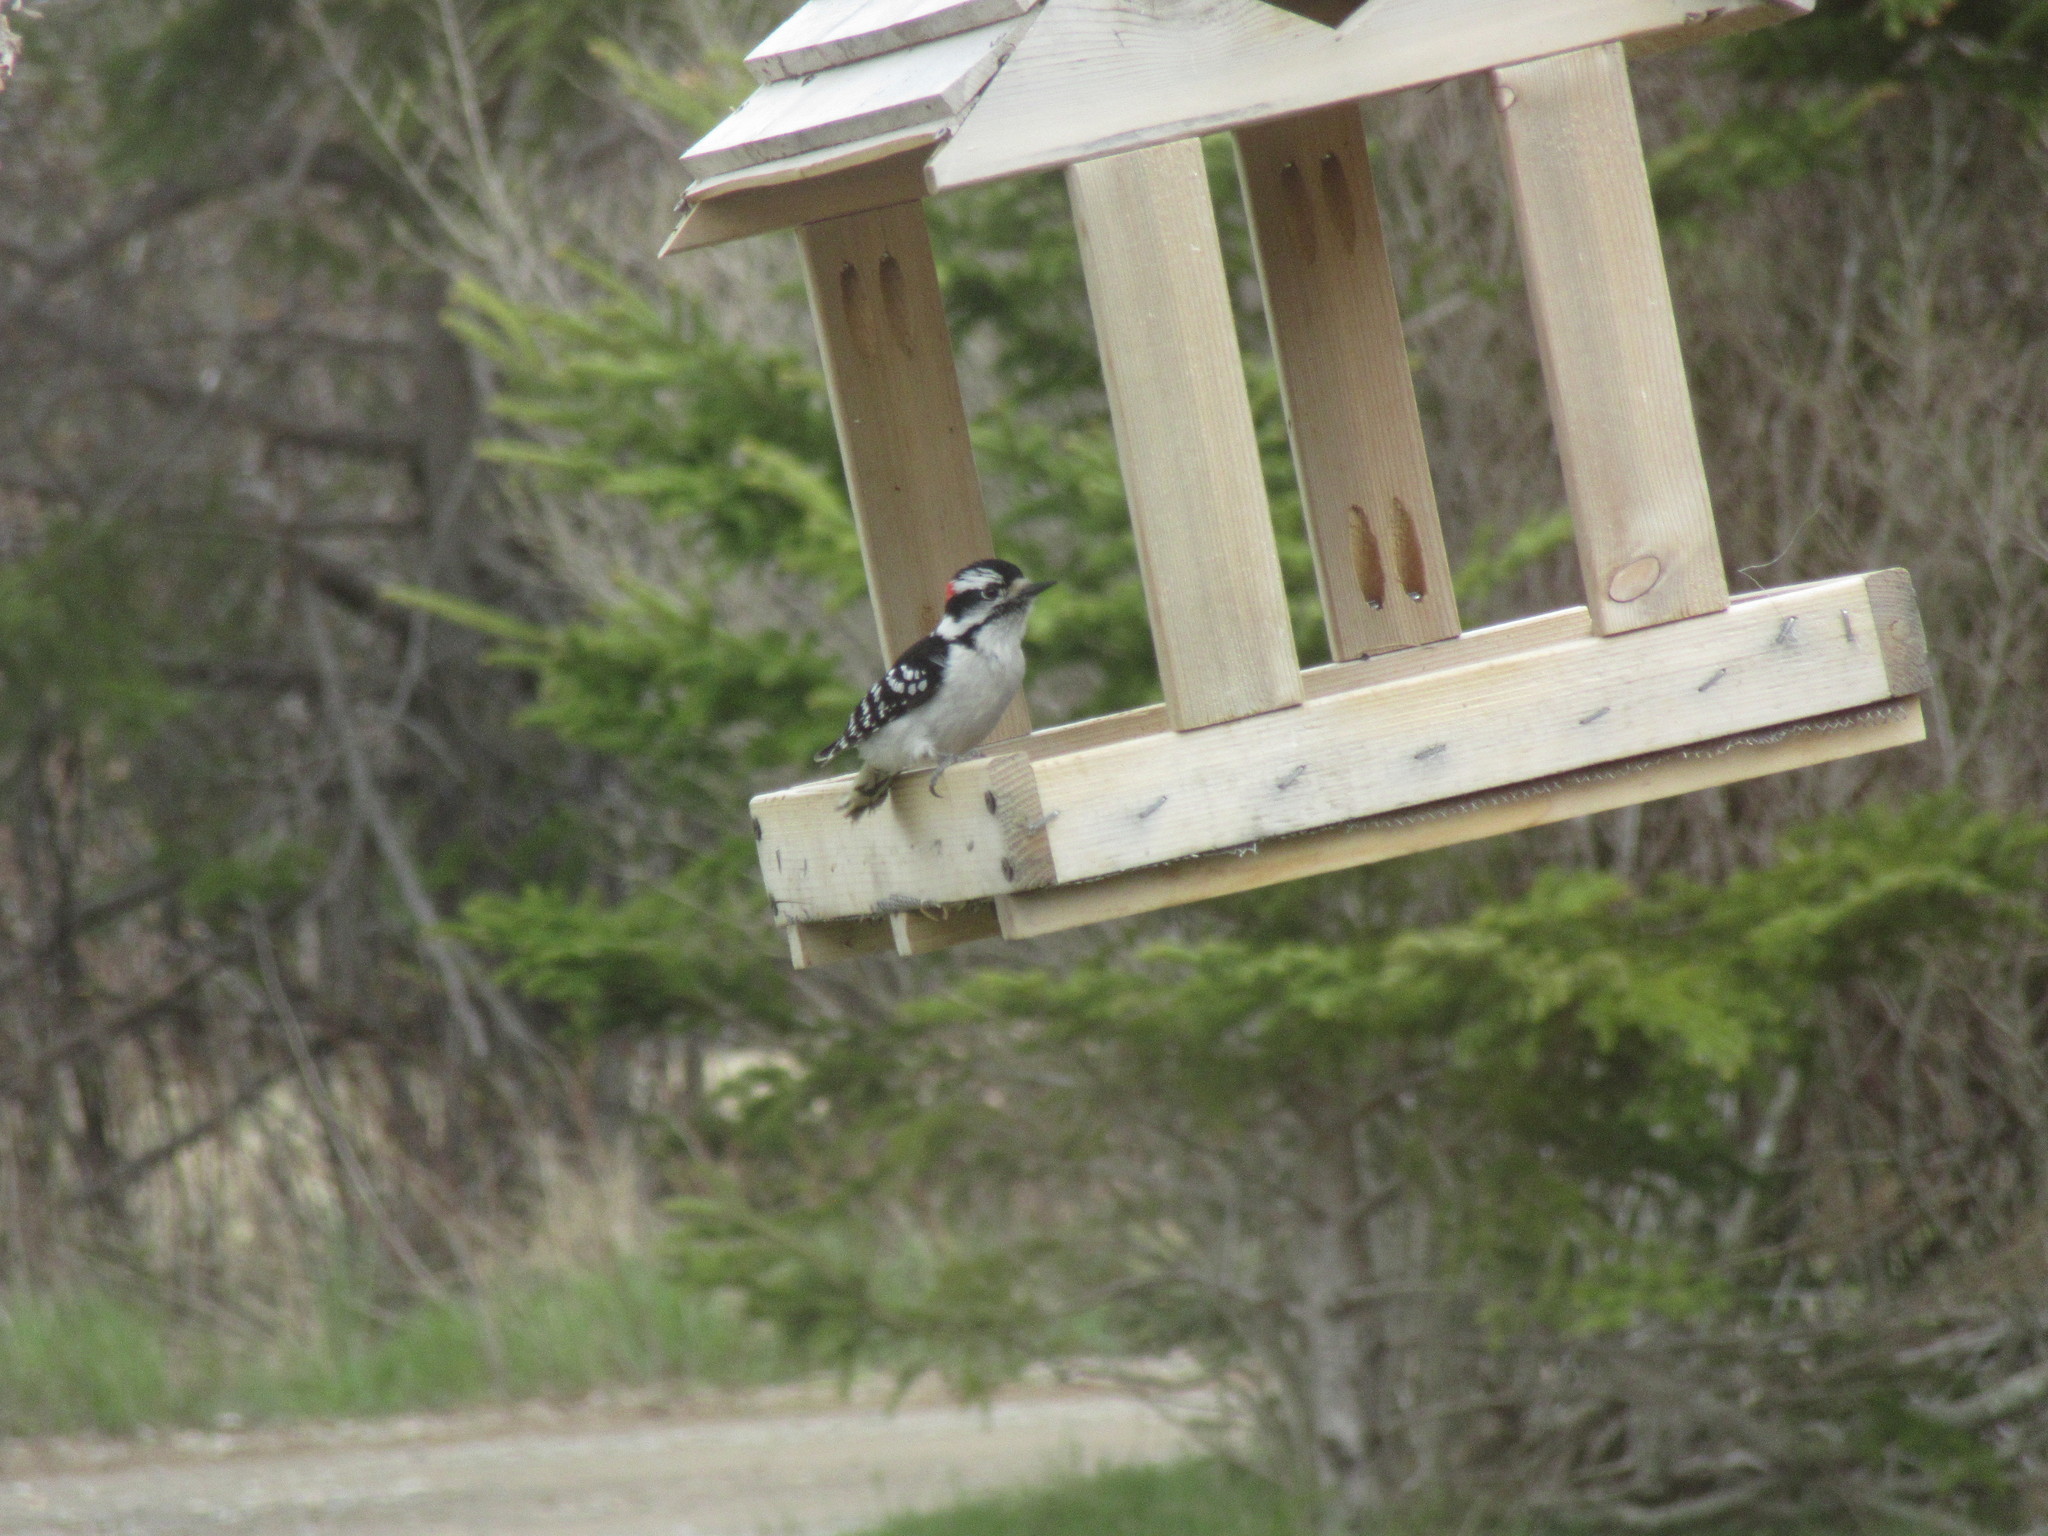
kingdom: Animalia
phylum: Chordata
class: Aves
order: Piciformes
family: Picidae
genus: Dryobates
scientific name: Dryobates pubescens
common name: Downy woodpecker
